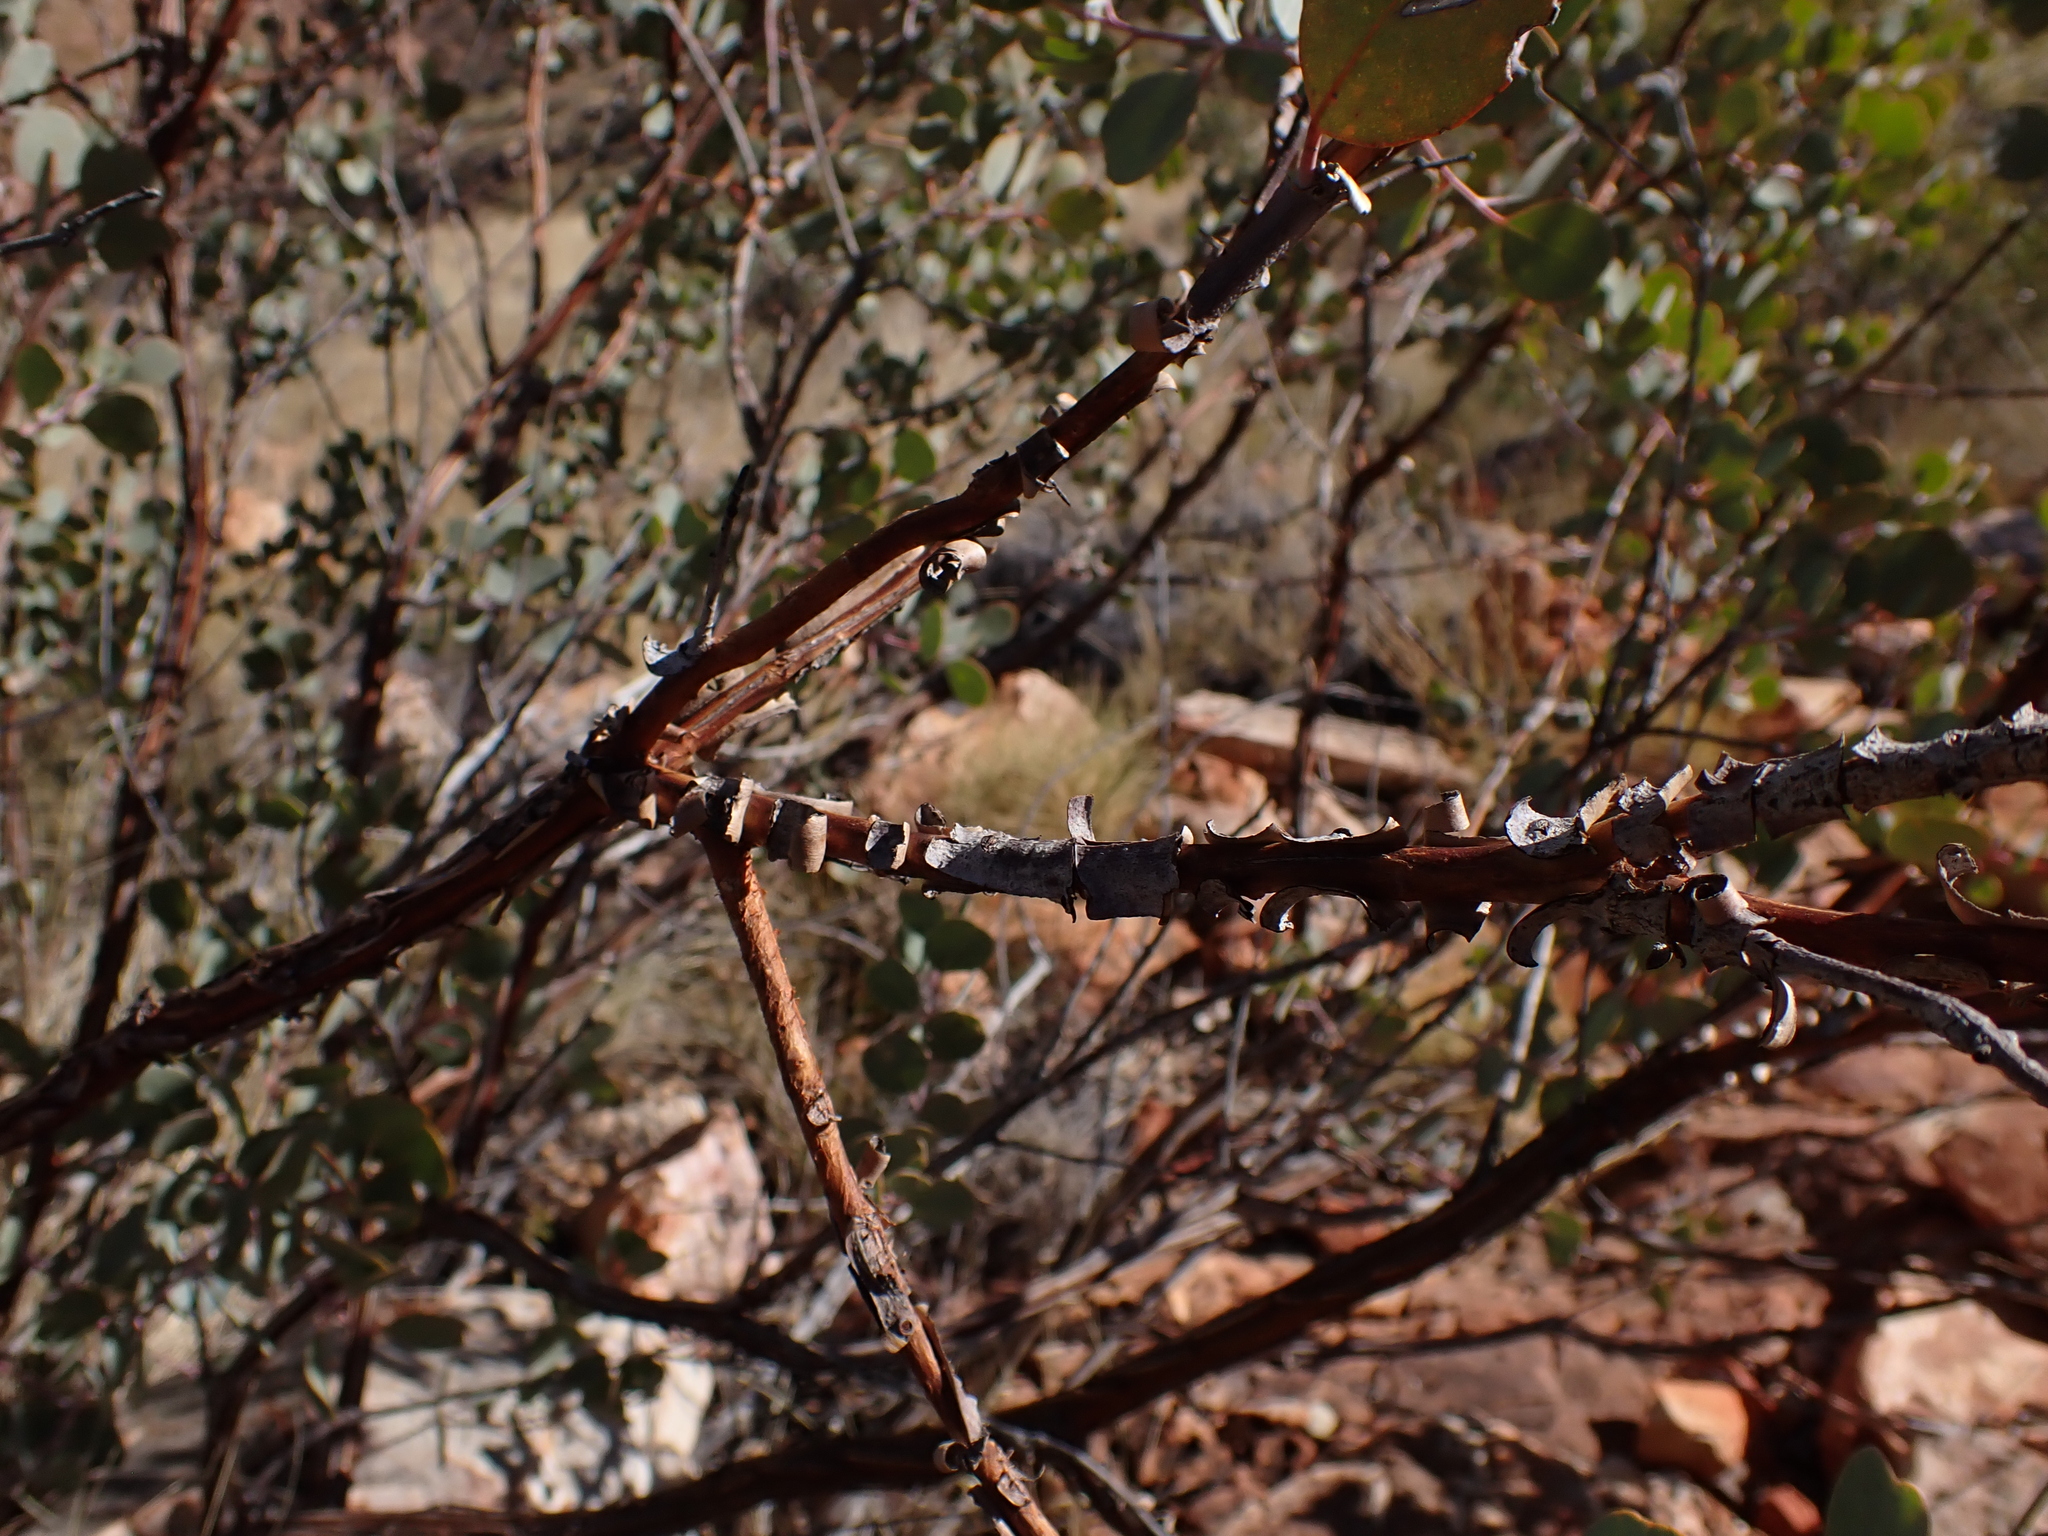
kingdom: Plantae
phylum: Tracheophyta
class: Magnoliopsida
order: Myrtales
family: Myrtaceae
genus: Eucalyptus
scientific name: Eucalyptus minniritchi
